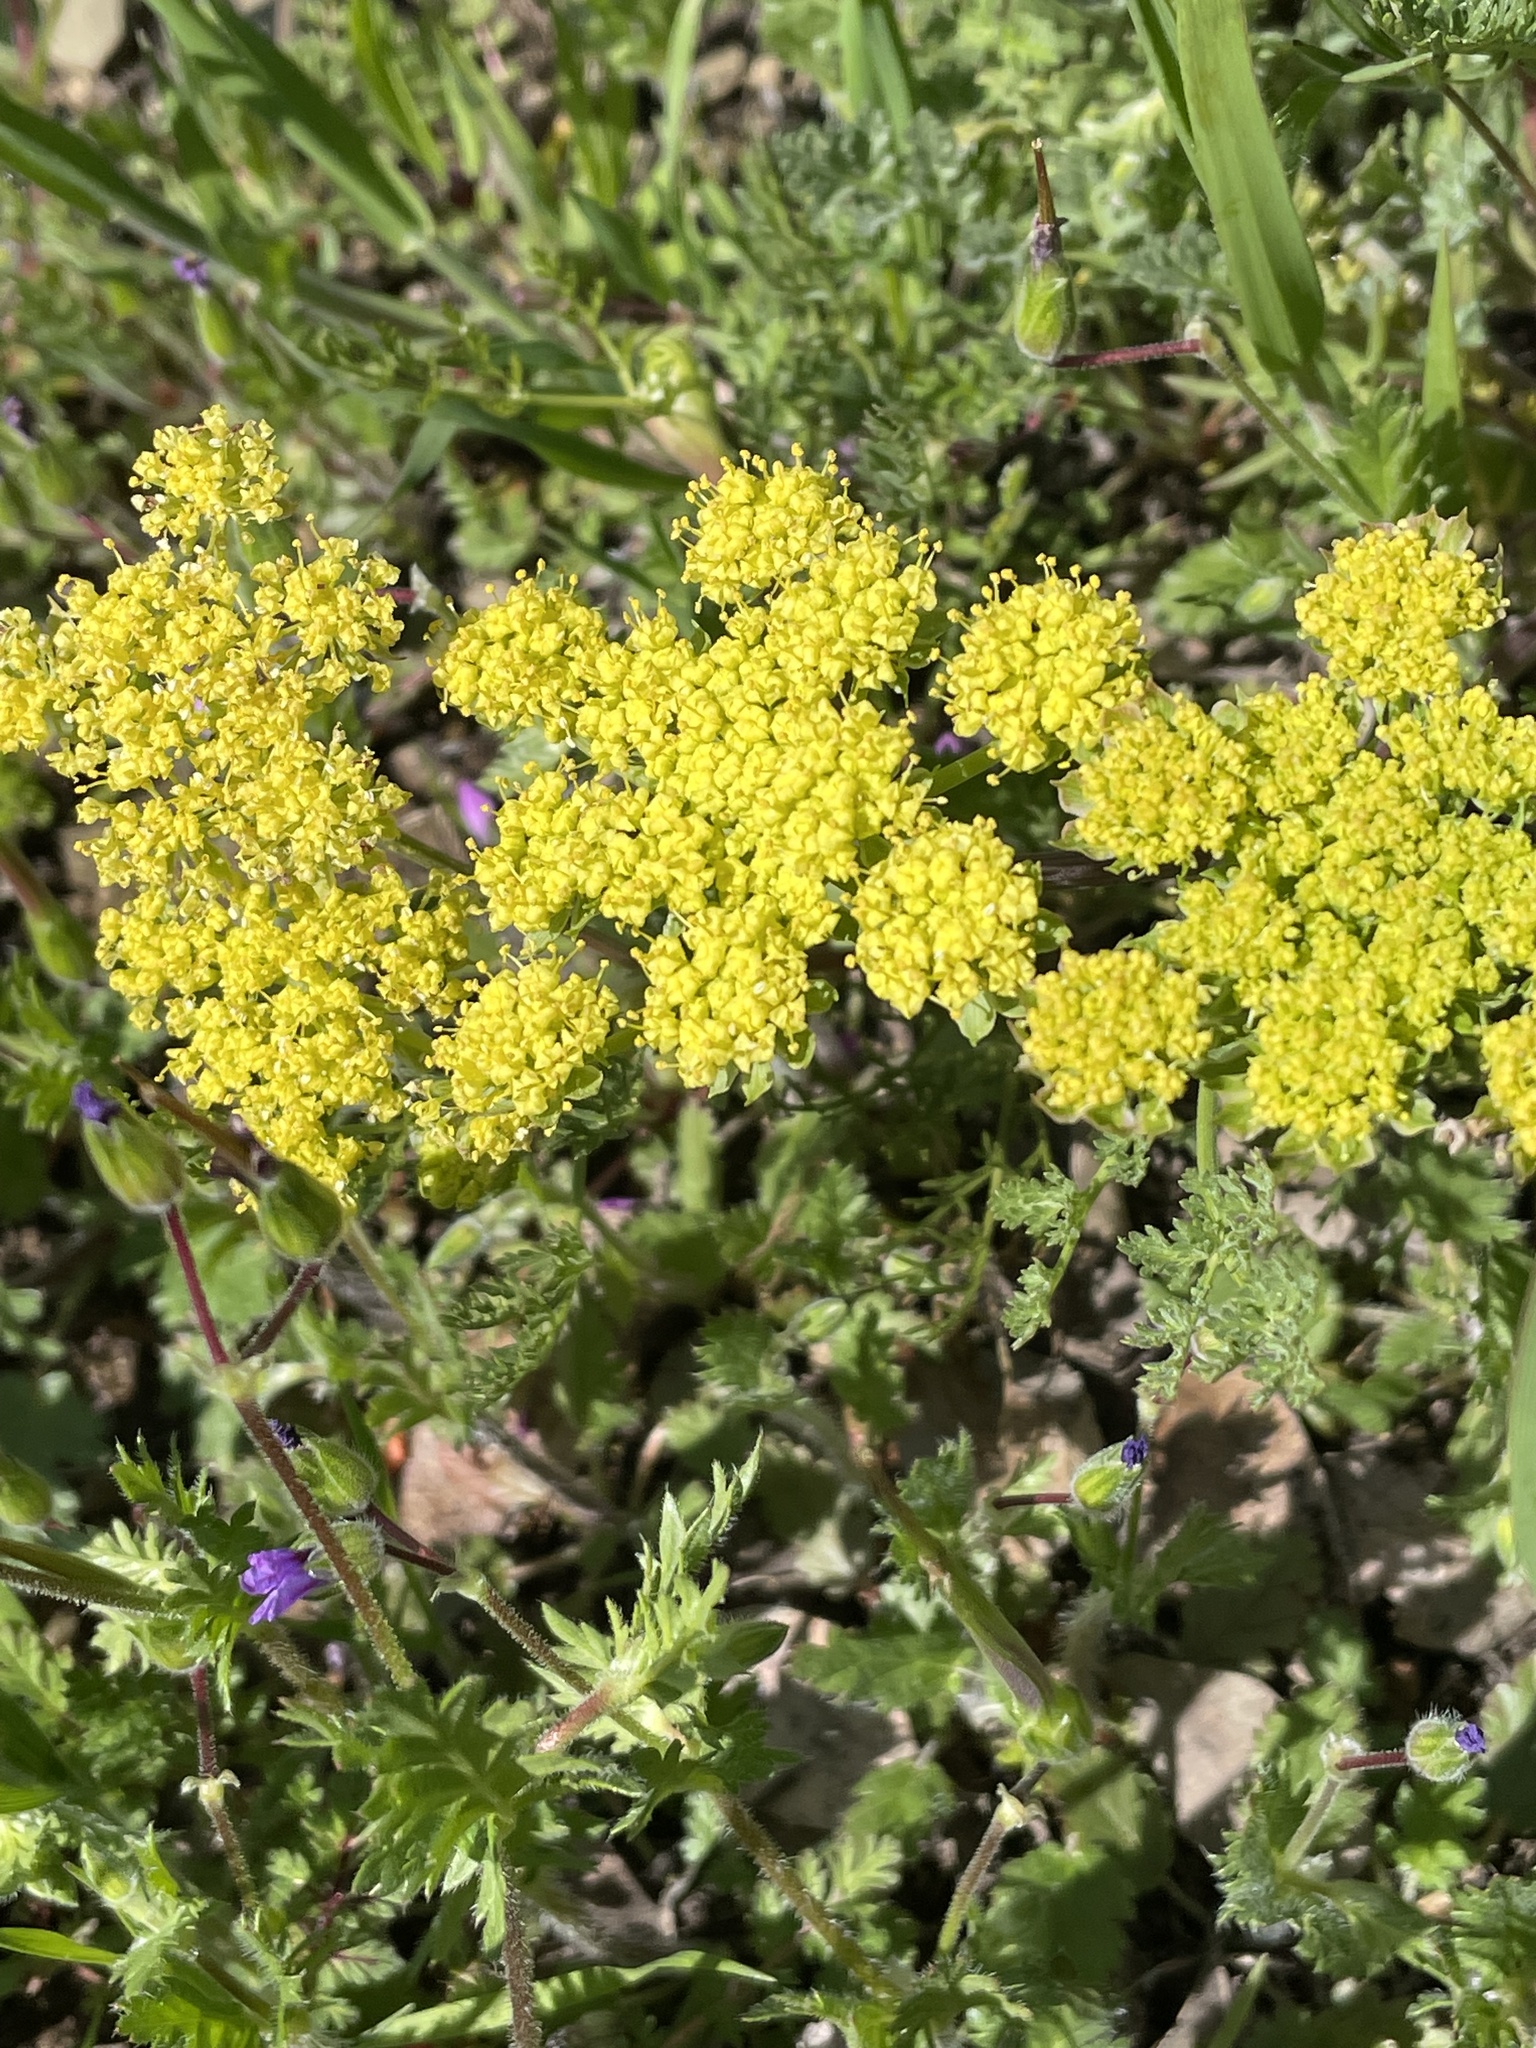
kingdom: Plantae
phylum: Tracheophyta
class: Magnoliopsida
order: Apiales
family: Apiaceae
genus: Lomatium
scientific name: Lomatium utriculatum
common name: Fine-leaf desert-parsley
